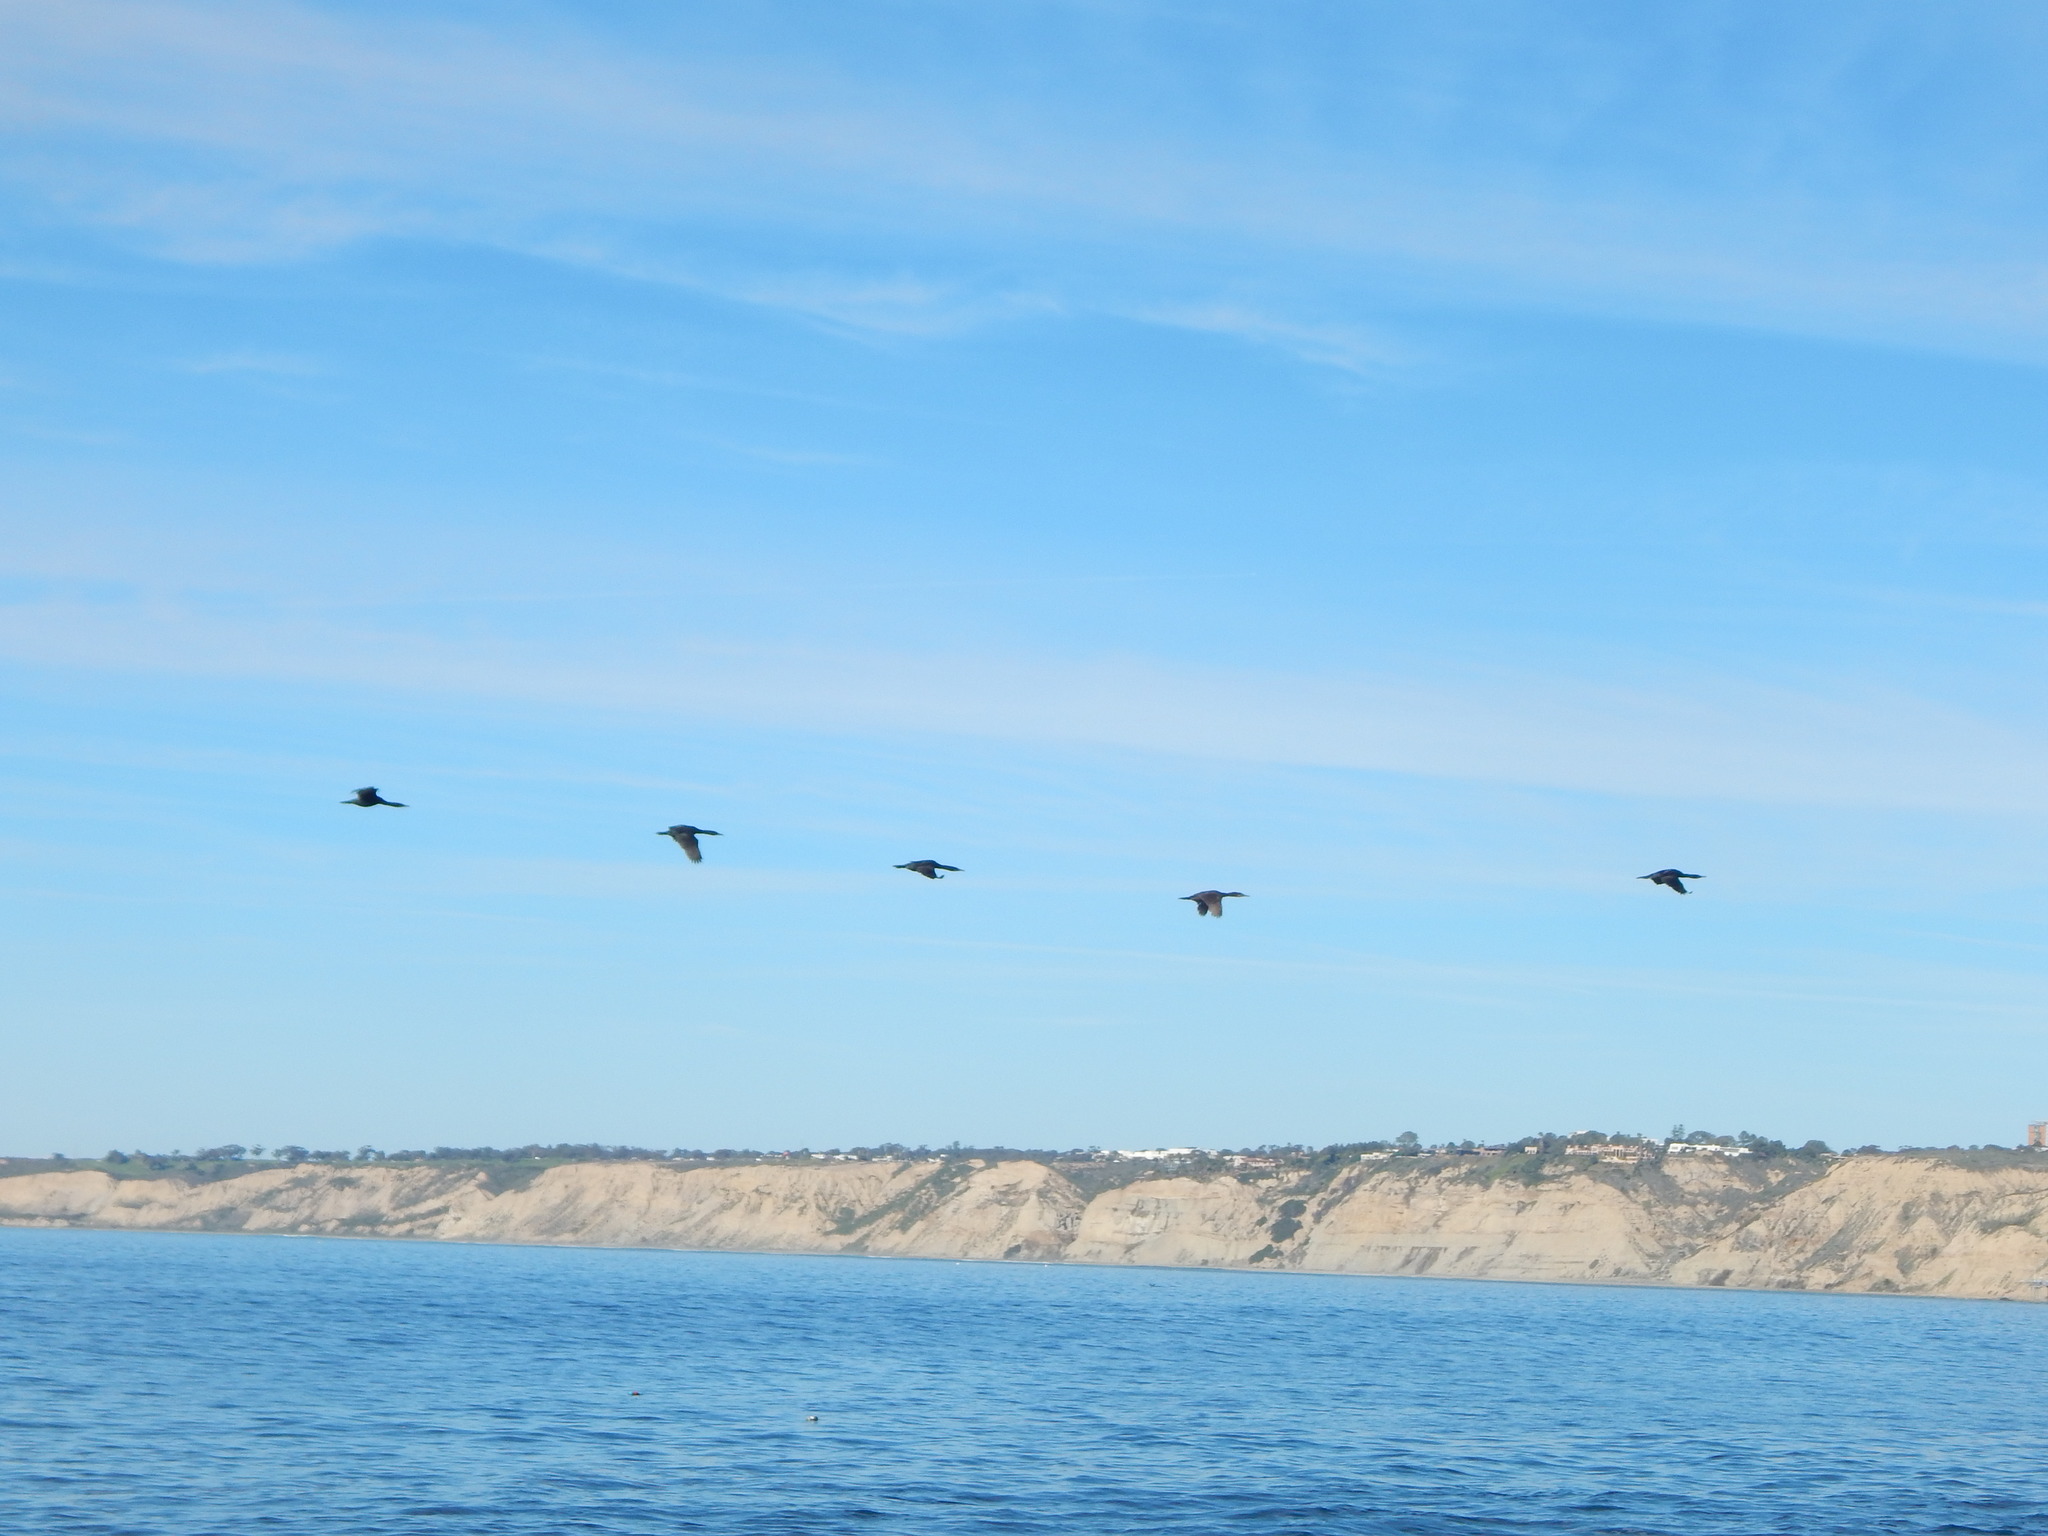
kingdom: Animalia
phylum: Chordata
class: Aves
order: Suliformes
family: Phalacrocoracidae
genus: Urile
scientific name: Urile penicillatus
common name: Brandt's cormorant
